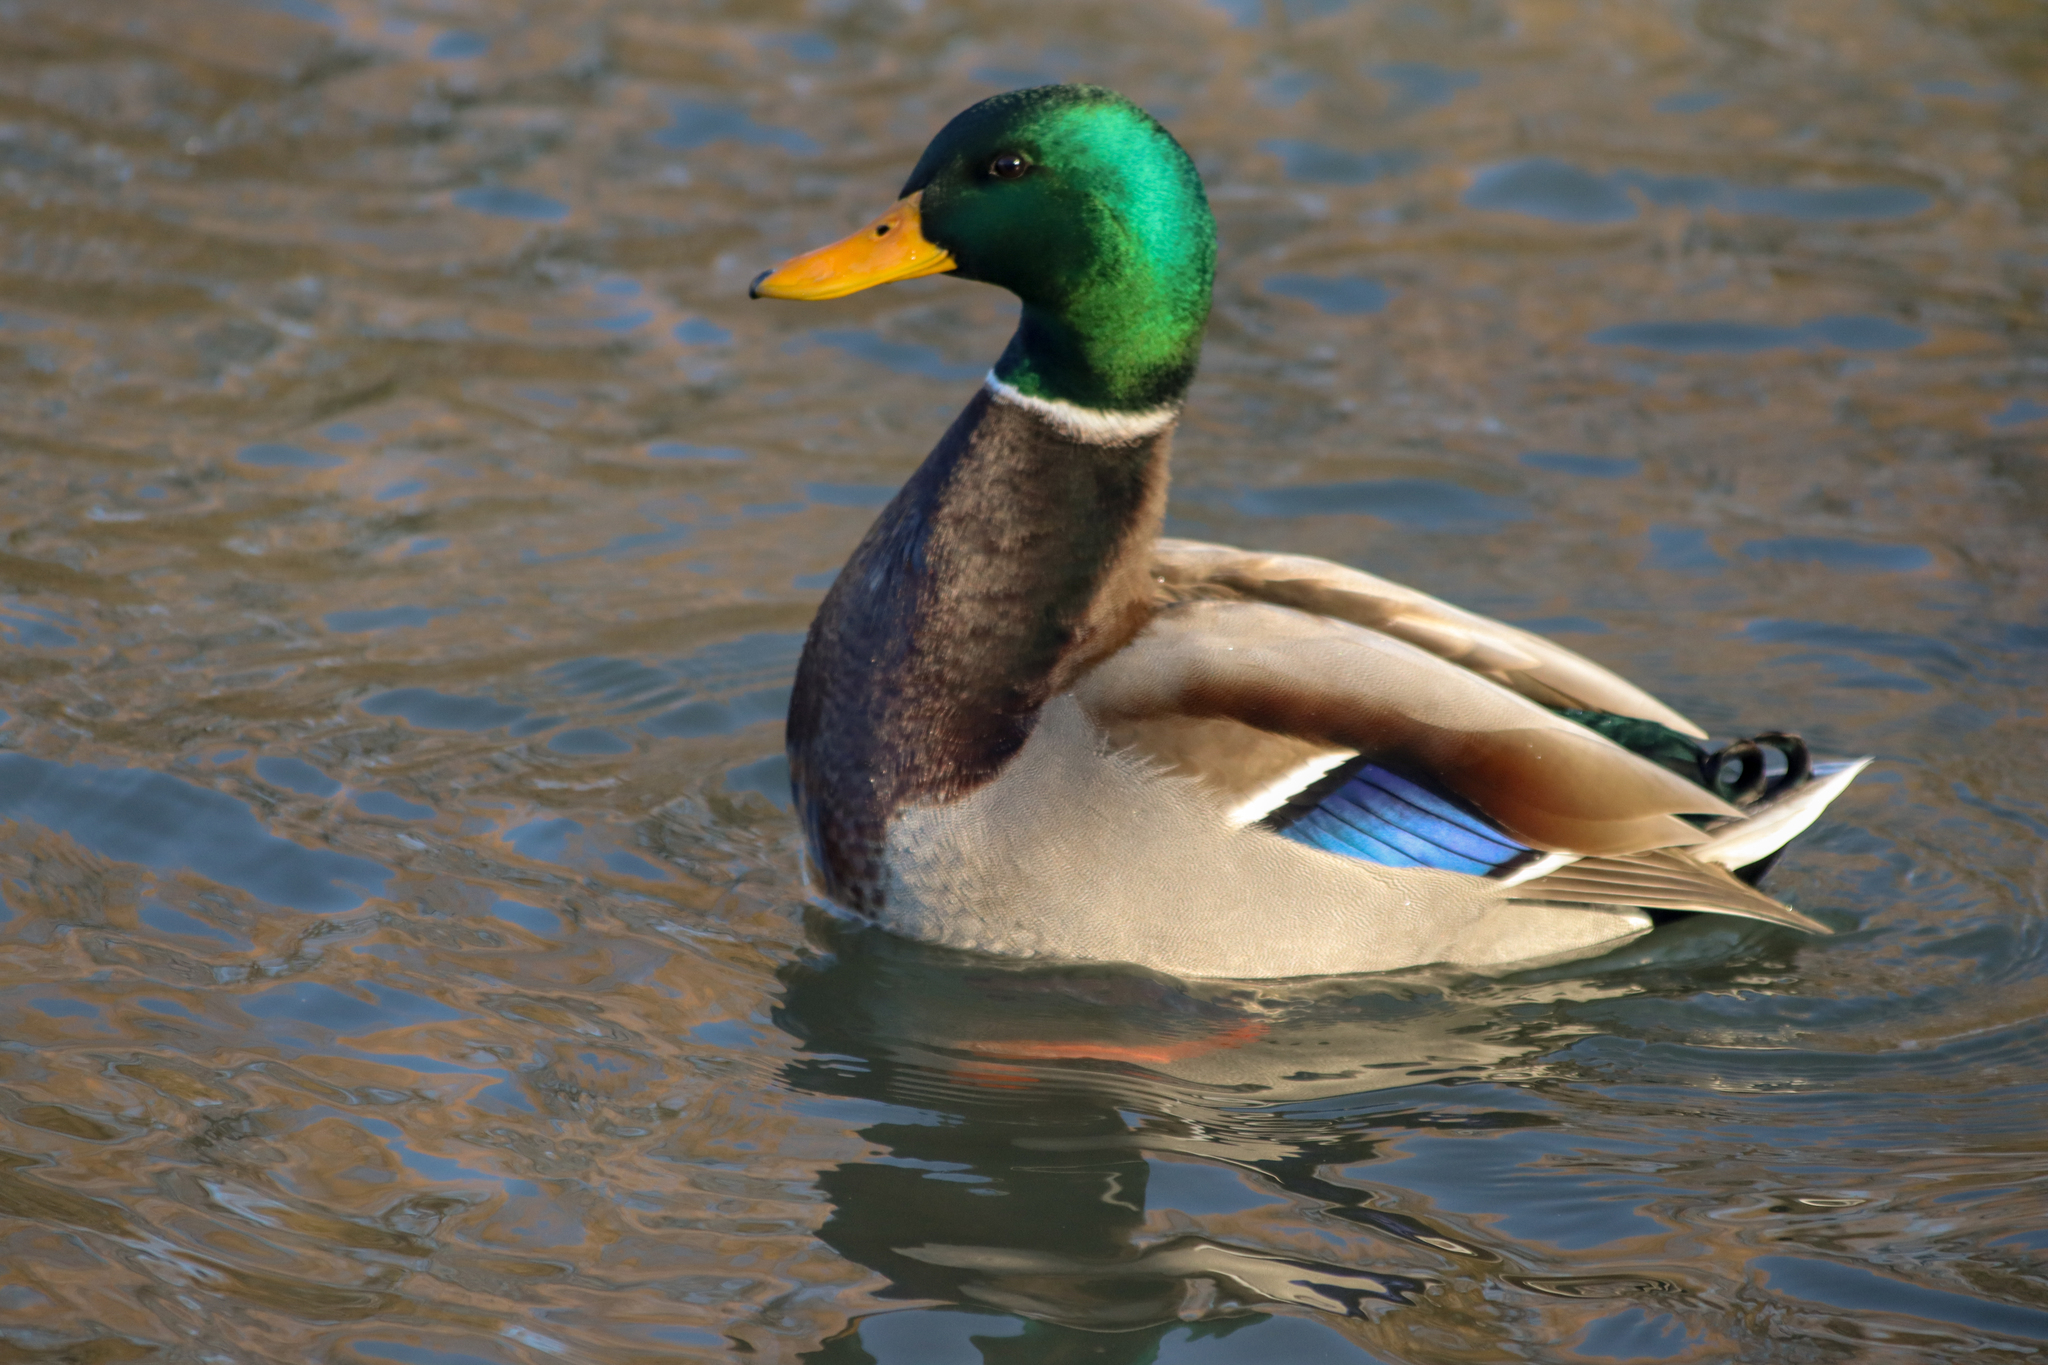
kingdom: Animalia
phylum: Chordata
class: Aves
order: Anseriformes
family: Anatidae
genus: Anas
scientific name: Anas platyrhynchos
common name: Mallard
